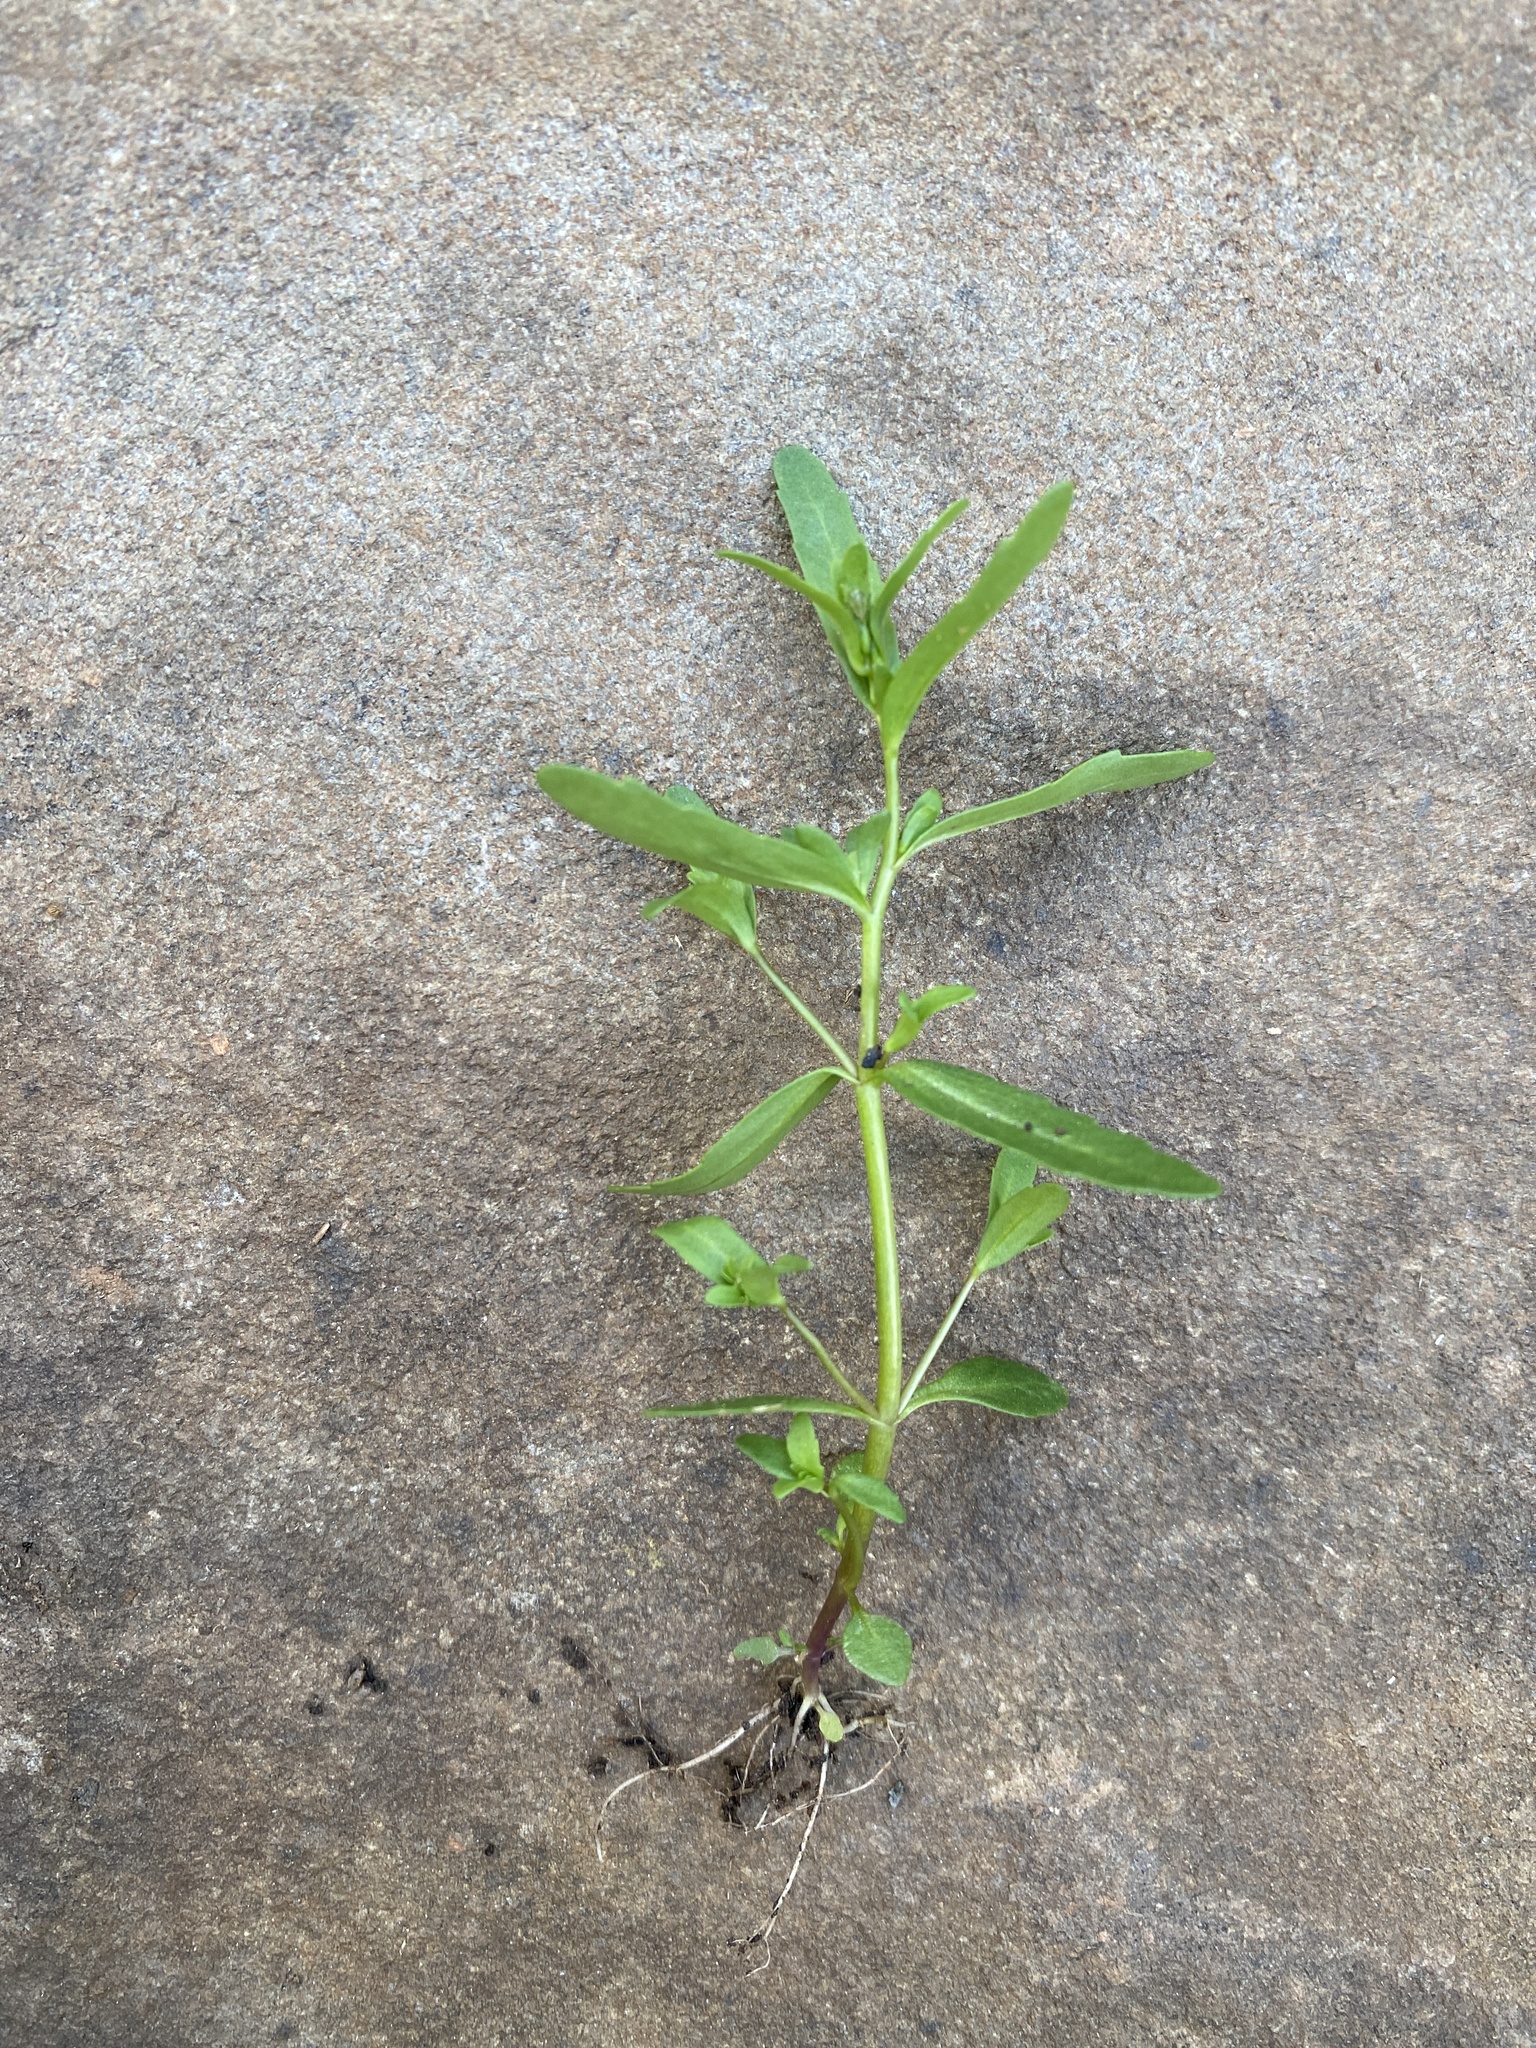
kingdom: Plantae
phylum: Tracheophyta
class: Magnoliopsida
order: Lamiales
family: Plantaginaceae
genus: Veronica
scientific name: Veronica peregrina
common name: Neckweed
